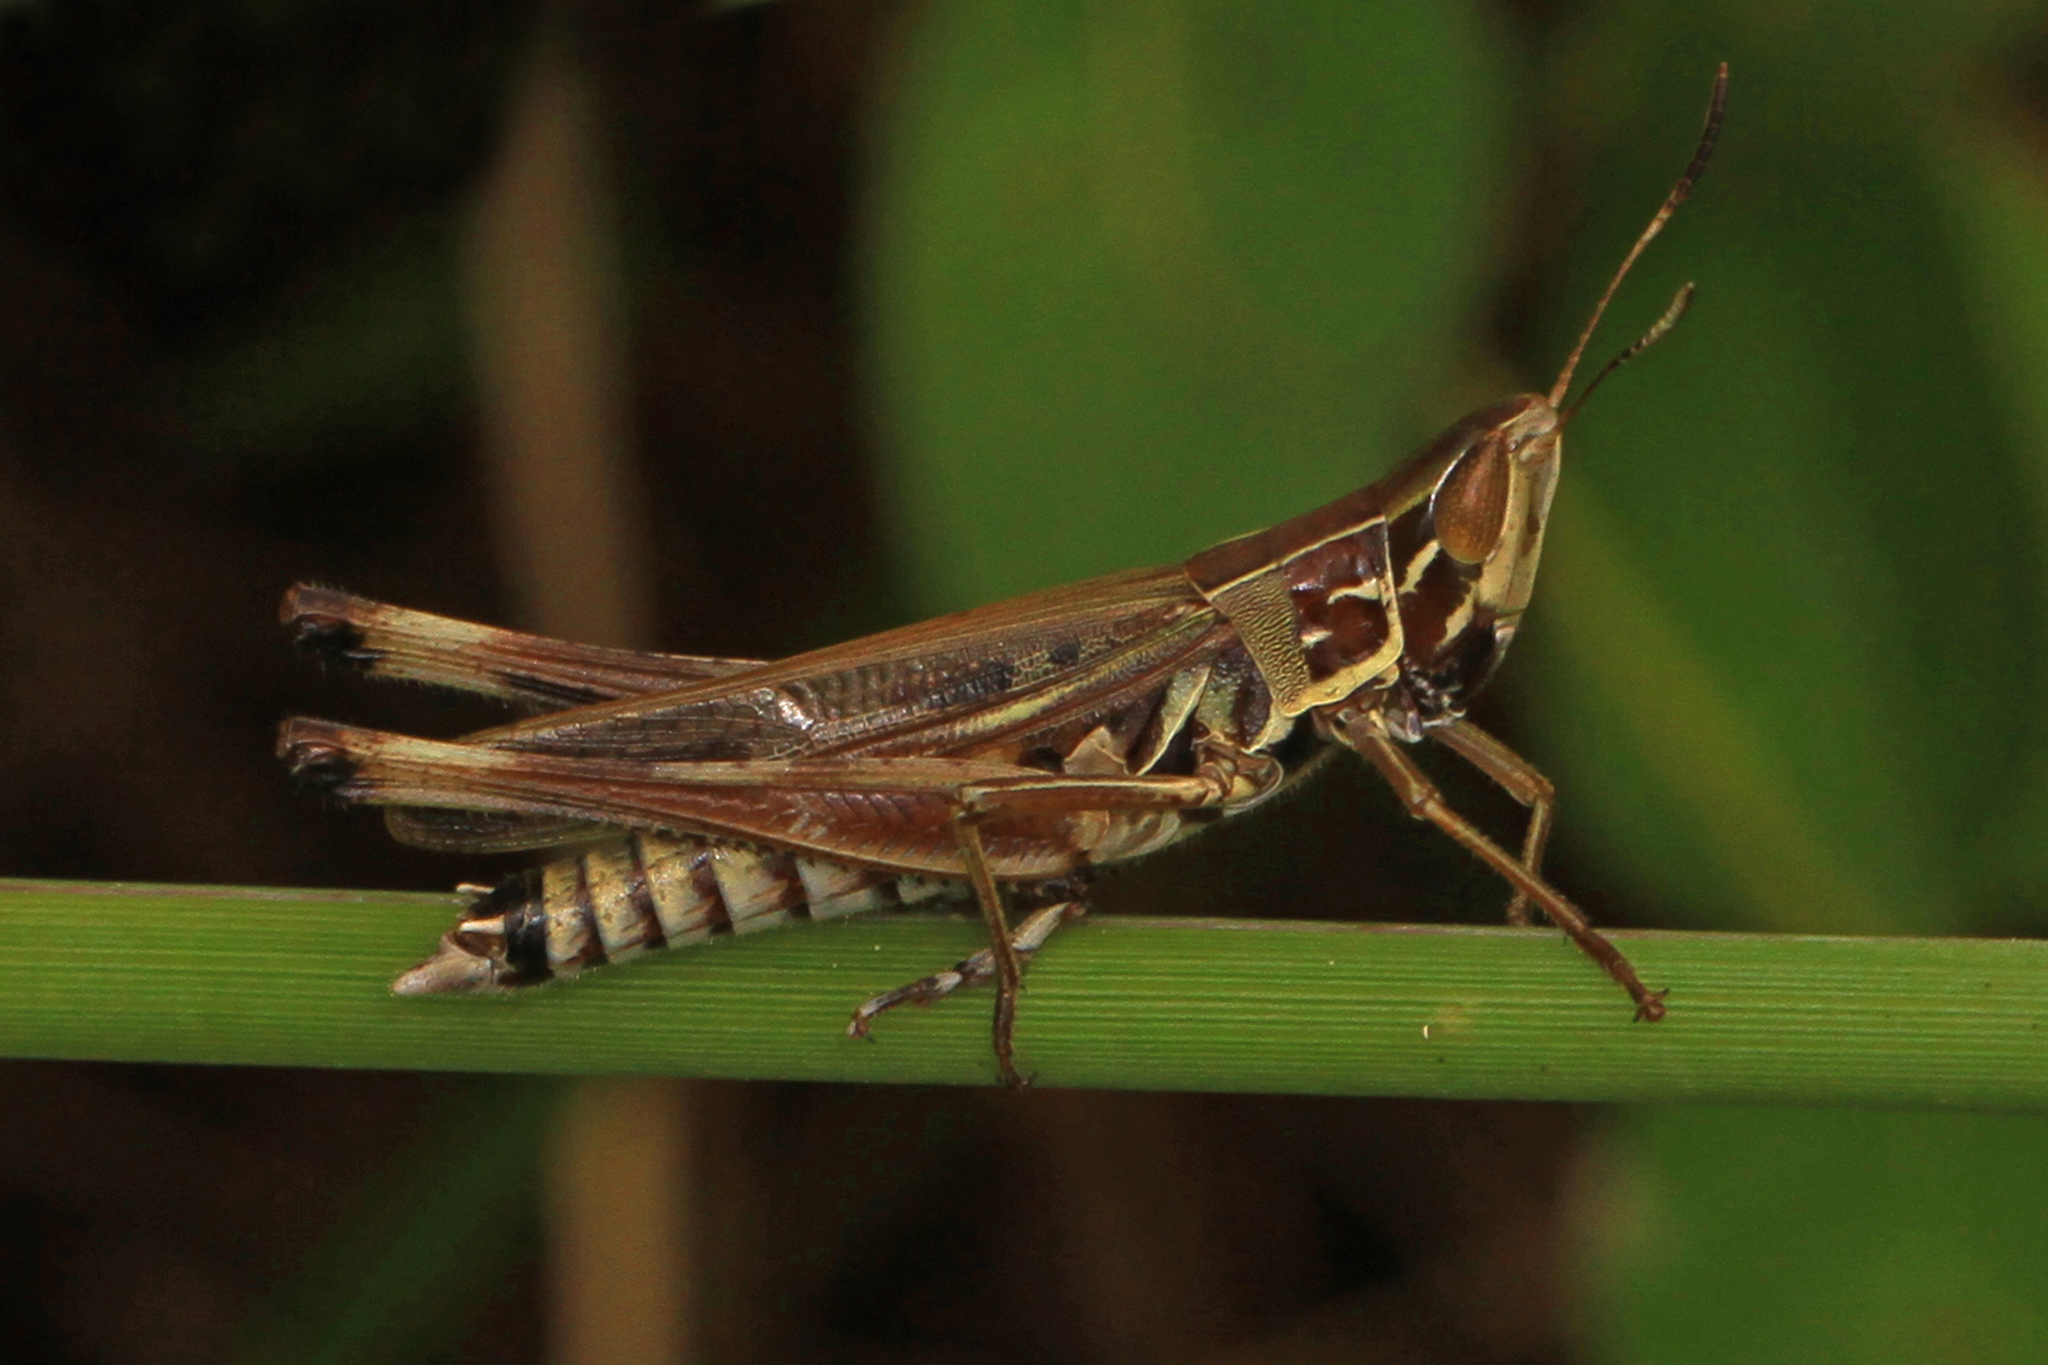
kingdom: Animalia
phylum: Arthropoda
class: Insecta
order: Orthoptera
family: Acrididae
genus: Syrbula
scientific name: Syrbula admirabilis
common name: Handsome grasshopper
